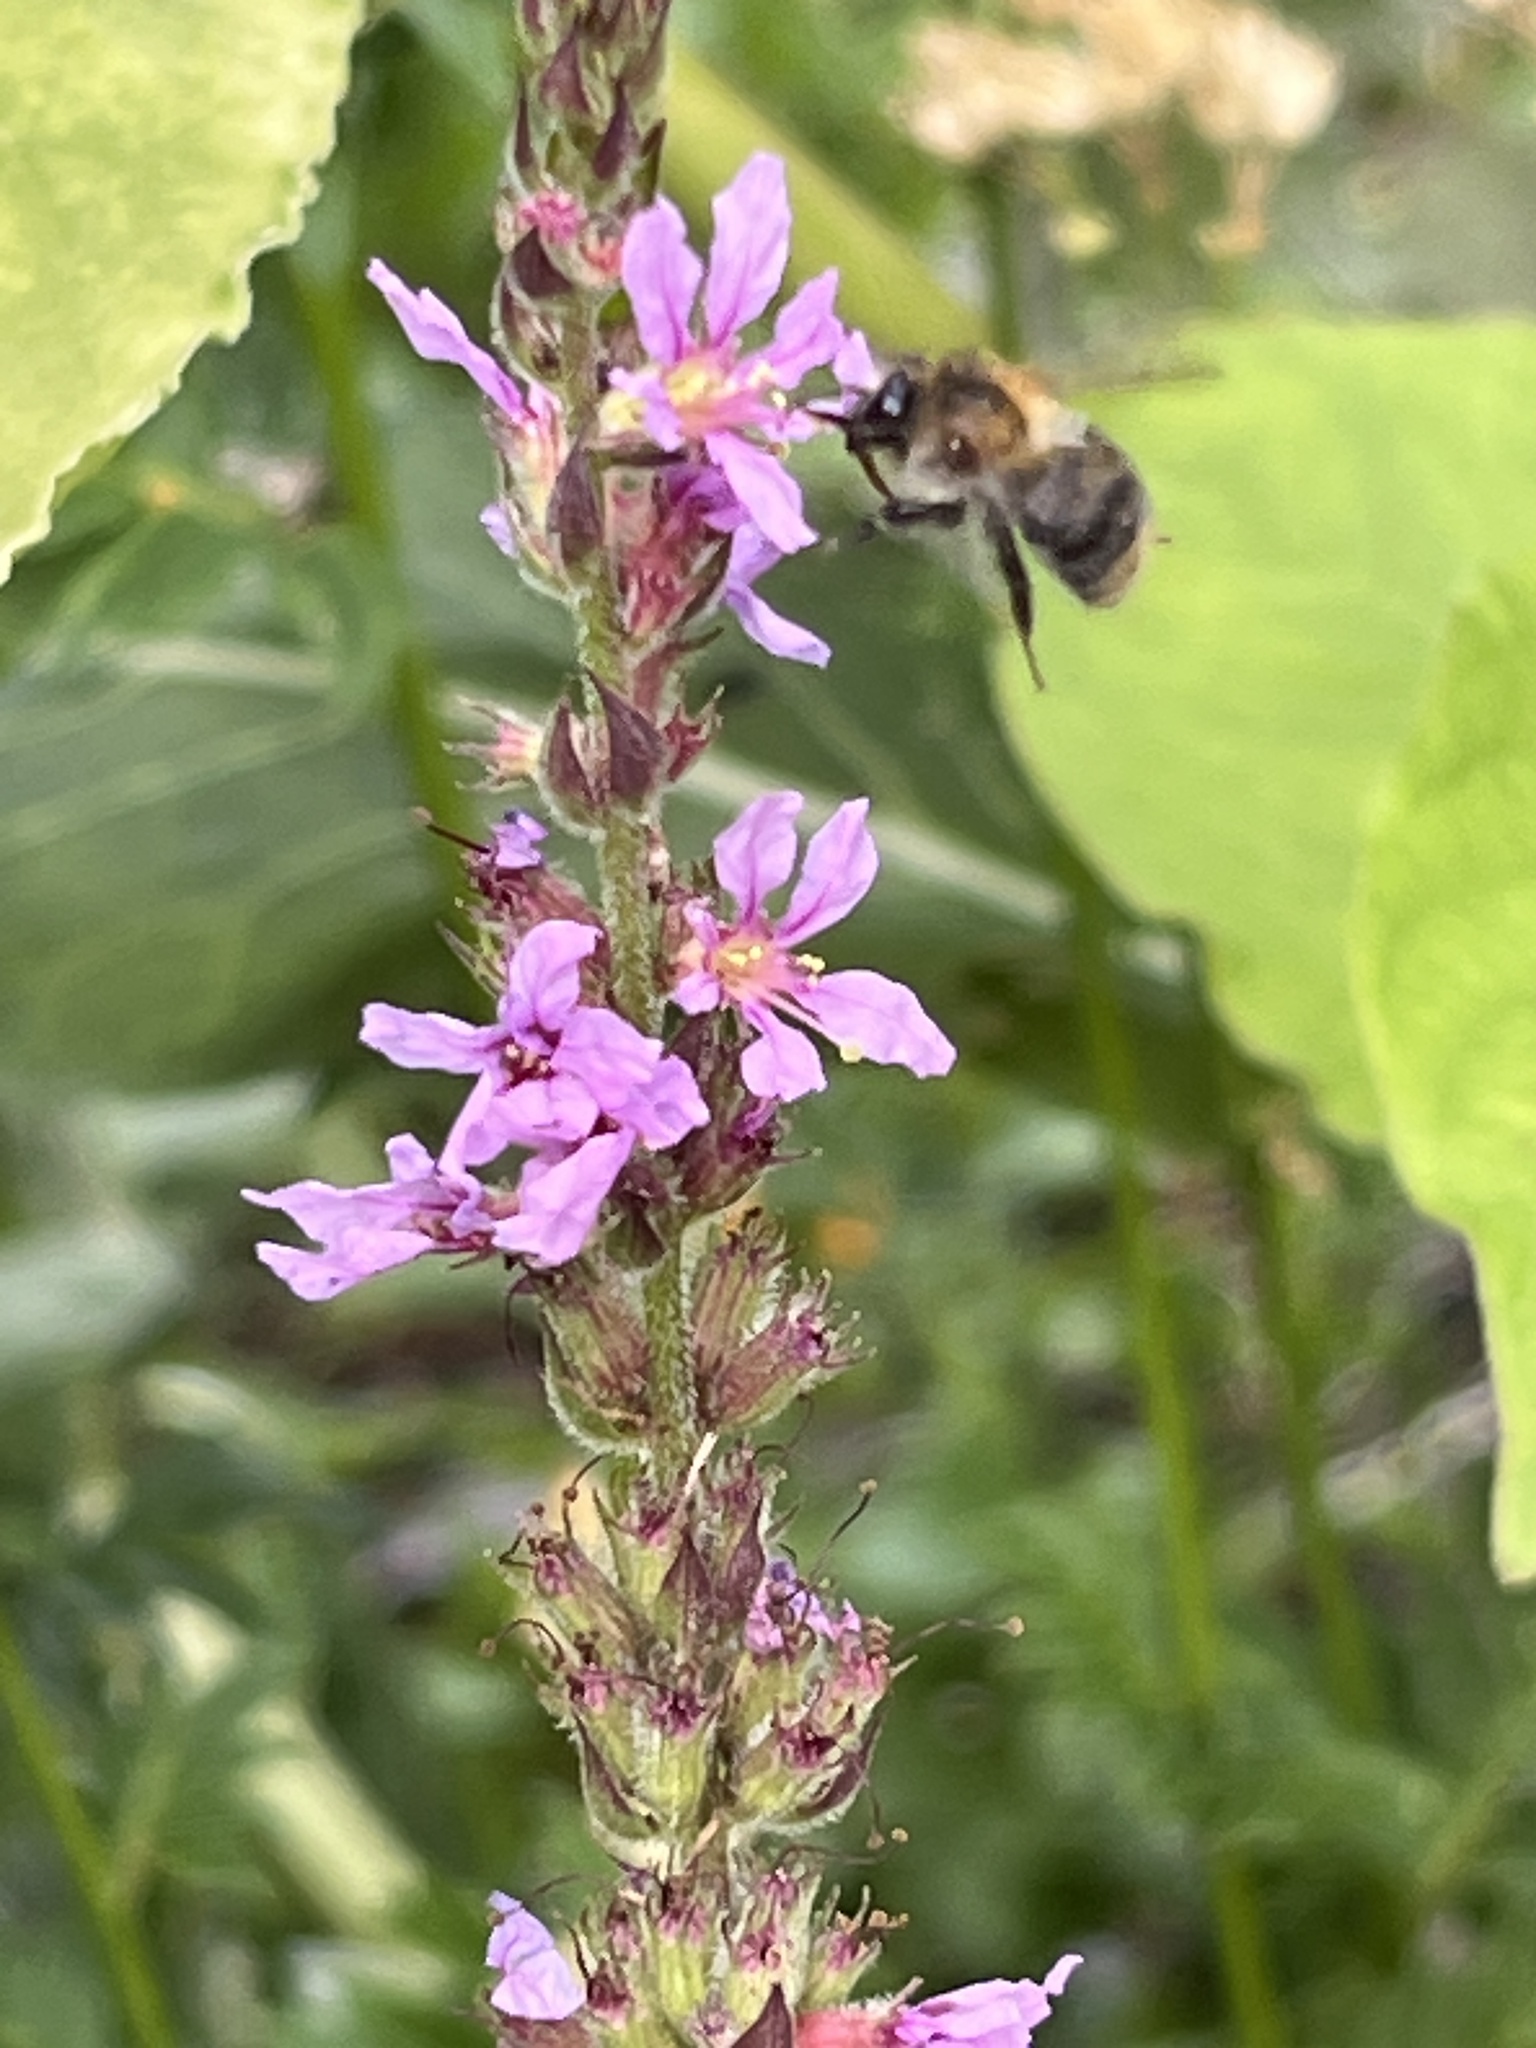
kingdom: Plantae
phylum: Tracheophyta
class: Magnoliopsida
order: Myrtales
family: Lythraceae
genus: Lythrum
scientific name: Lythrum salicaria
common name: Purple loosestrife
